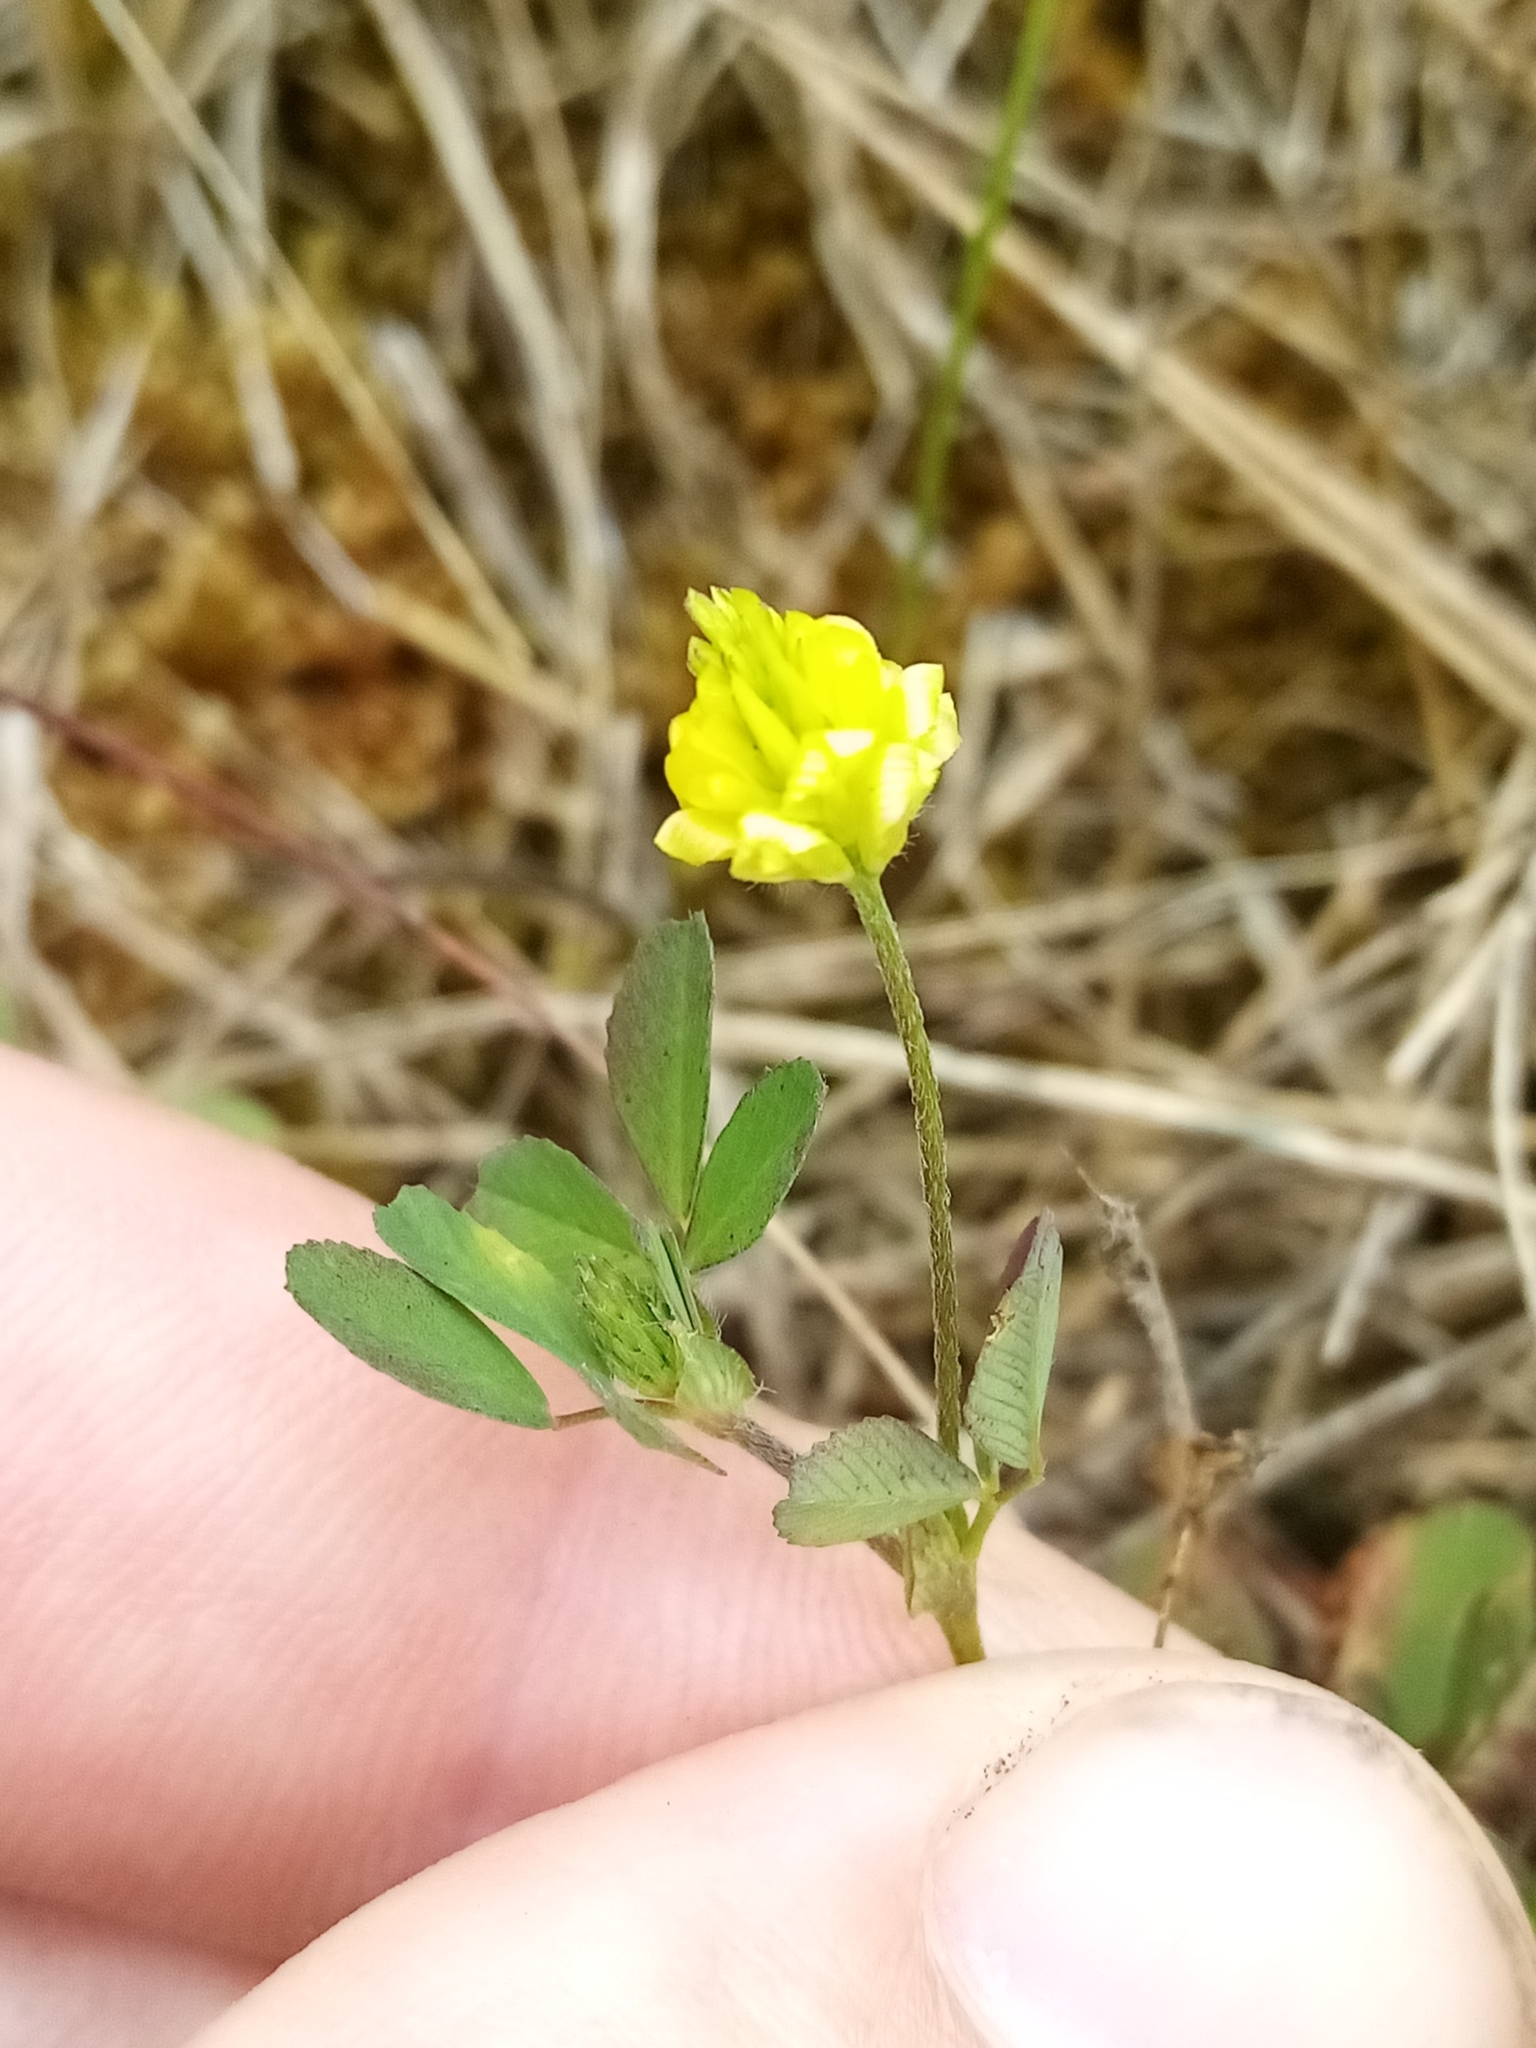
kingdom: Plantae
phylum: Tracheophyta
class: Magnoliopsida
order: Fabales
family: Fabaceae
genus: Trifolium
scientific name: Trifolium campestre
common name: Field clover
